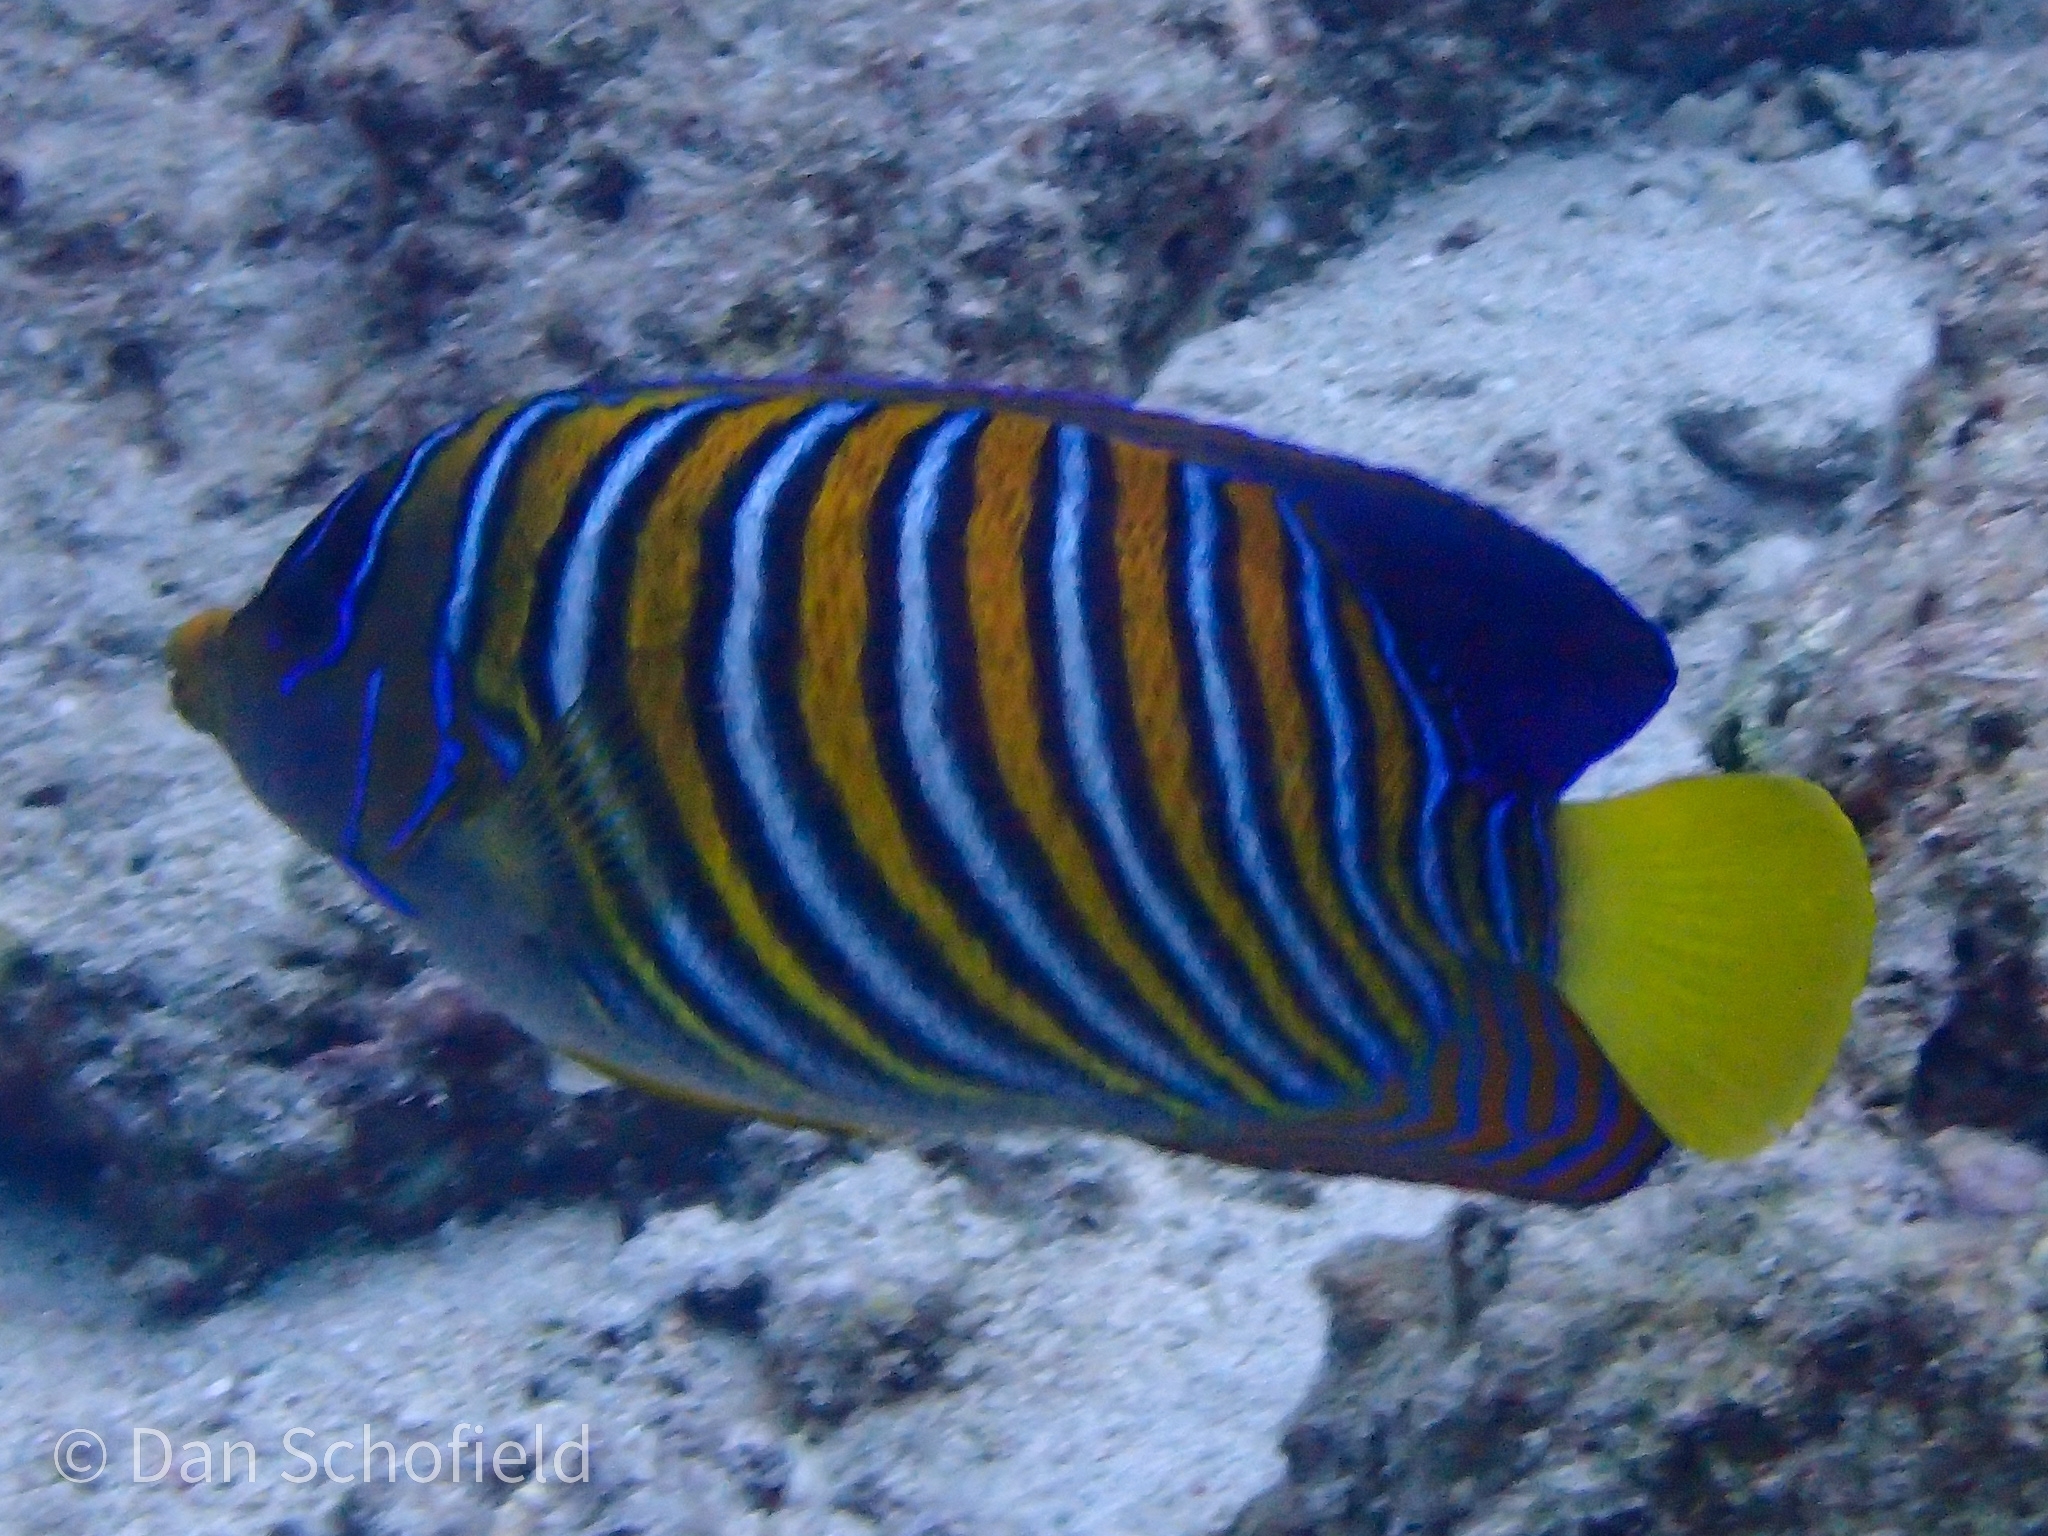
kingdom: Animalia
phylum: Chordata
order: Perciformes
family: Pomacanthidae
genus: Pygoplites
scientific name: Pygoplites diacanthus
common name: Regal angelfish
